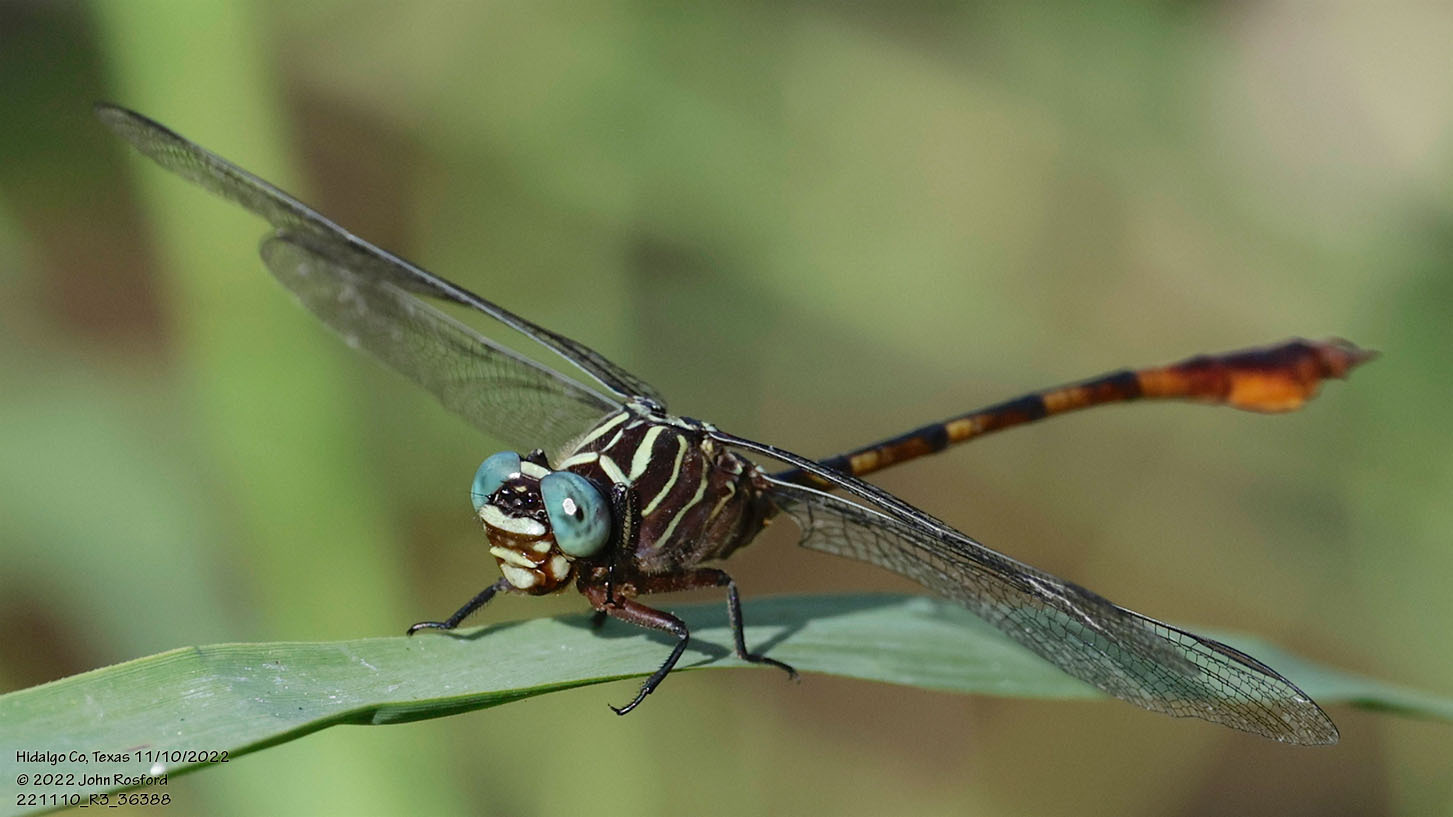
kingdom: Animalia
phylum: Arthropoda
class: Insecta
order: Odonata
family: Gomphidae
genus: Aphylla
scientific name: Aphylla protracta
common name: Narrow-striped forceptail
